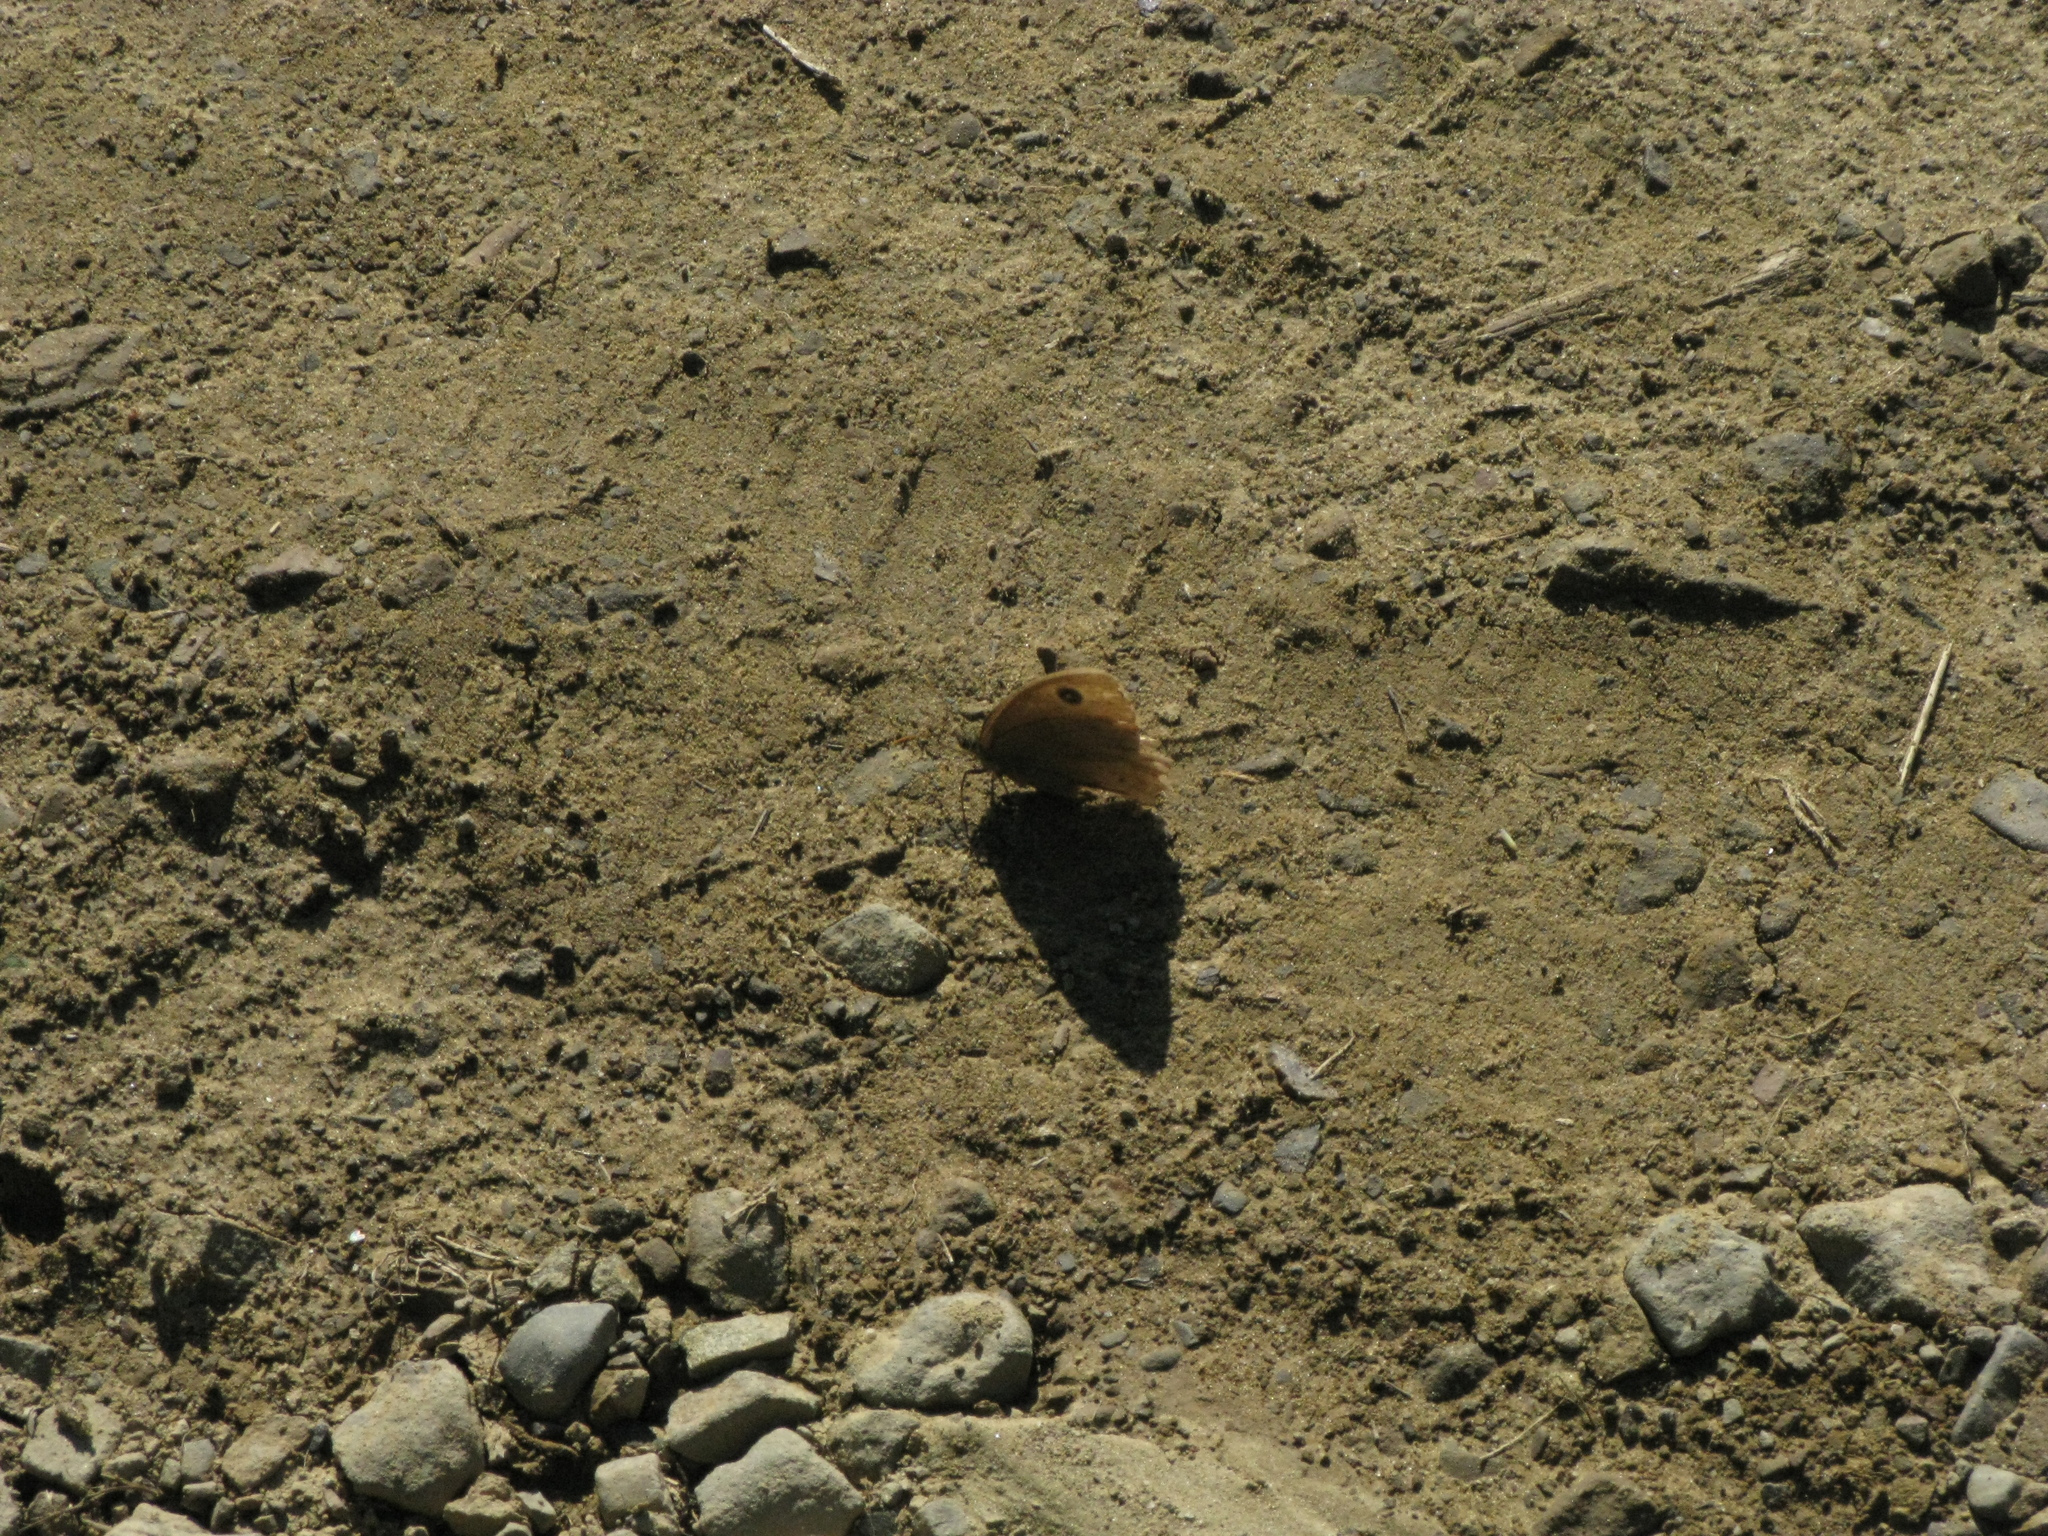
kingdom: Animalia
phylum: Arthropoda
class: Insecta
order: Lepidoptera
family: Nymphalidae
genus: Minois
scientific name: Minois dryas
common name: Dryad
